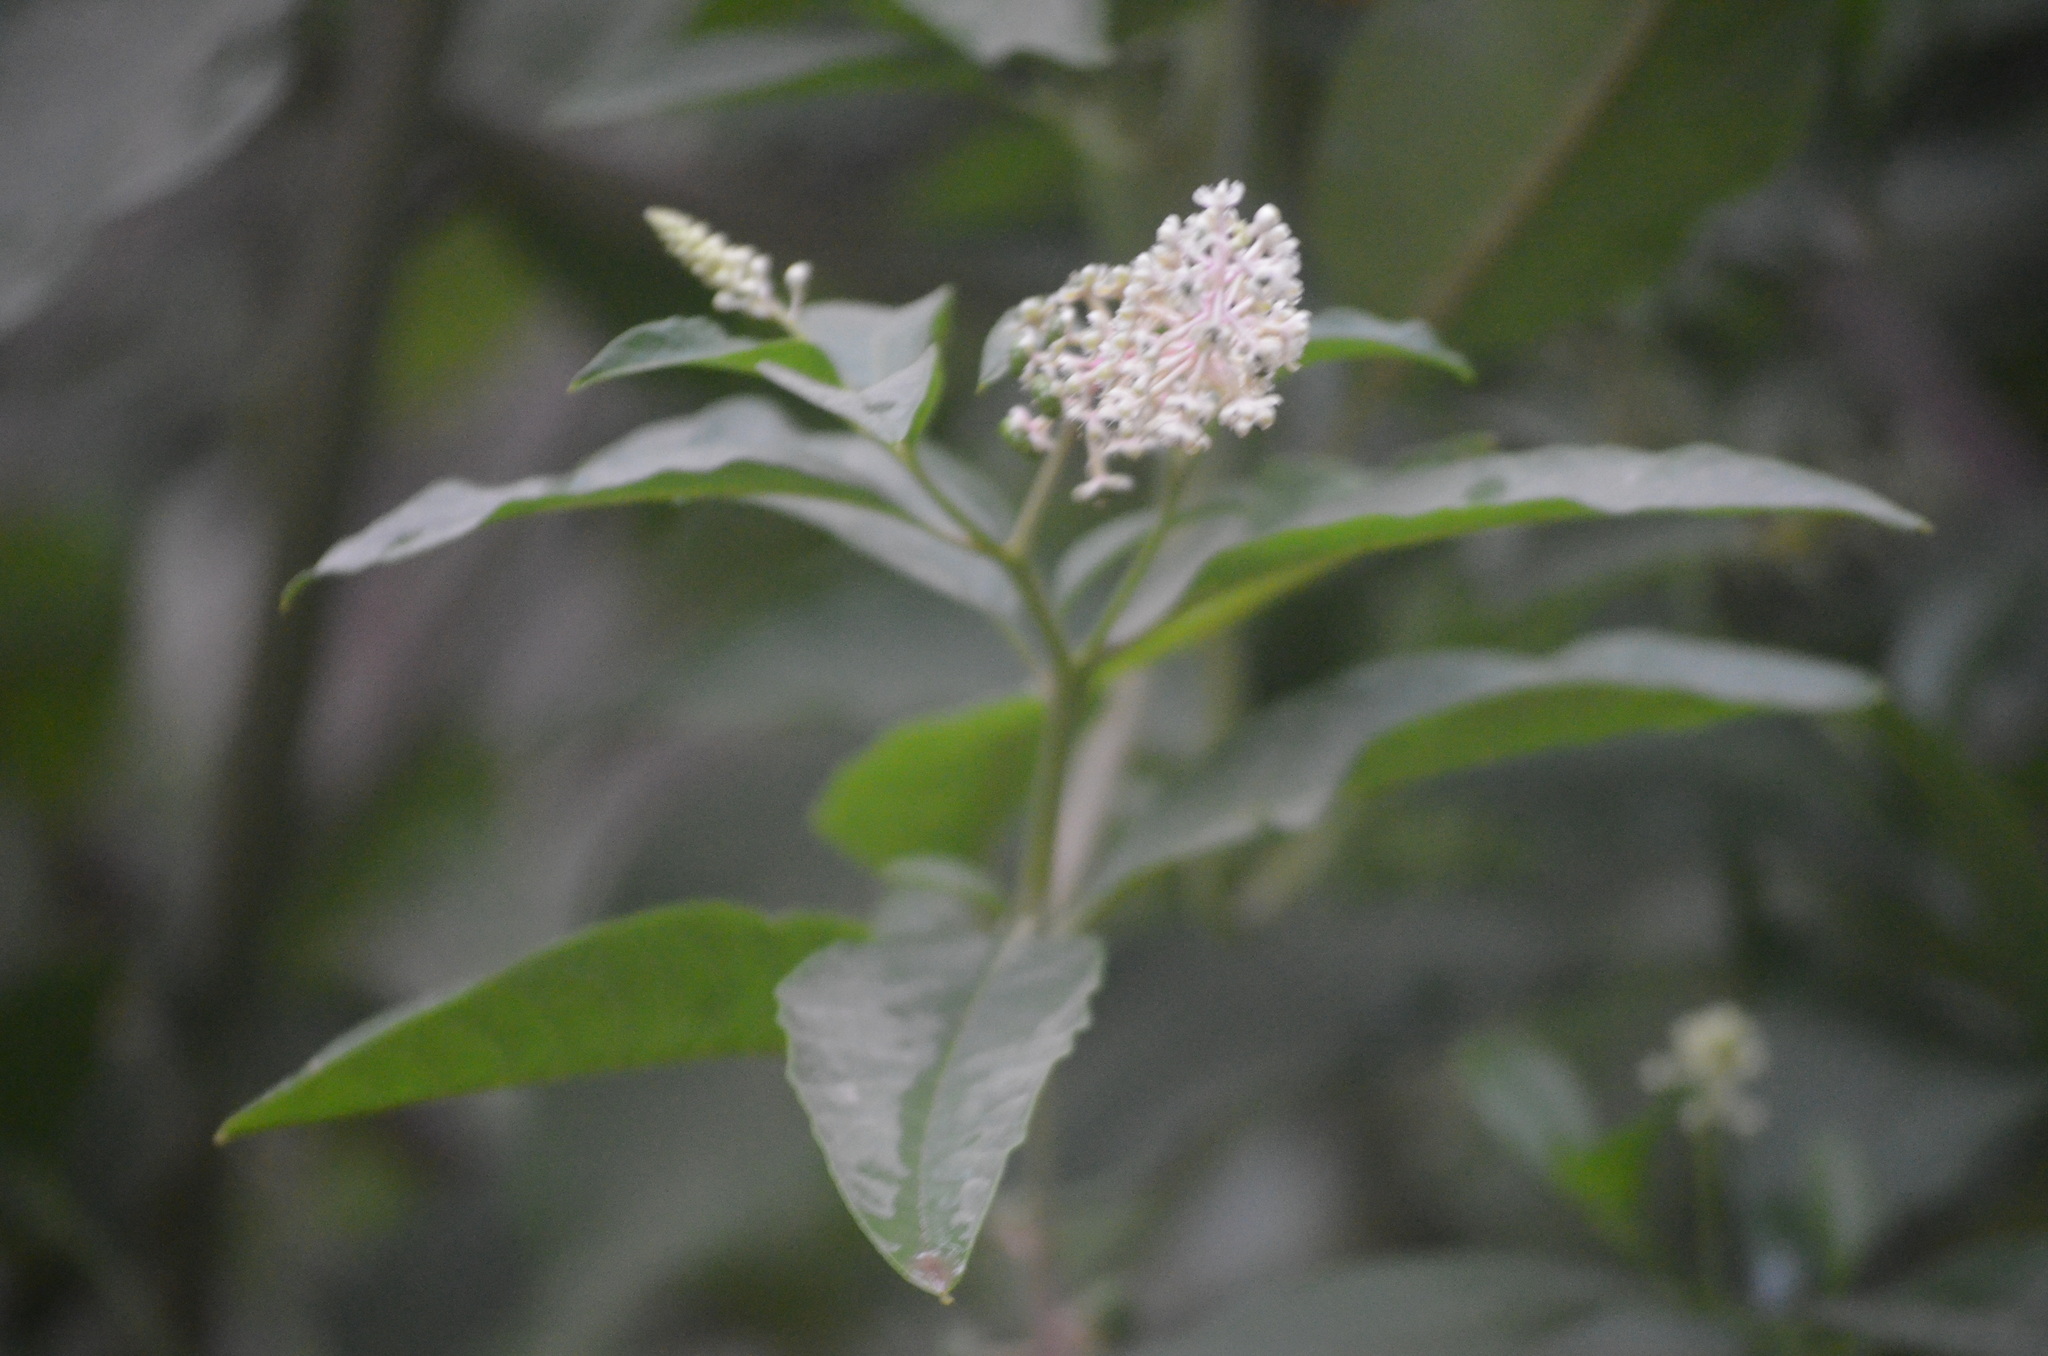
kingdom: Plantae
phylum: Tracheophyta
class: Magnoliopsida
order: Caryophyllales
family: Phytolaccaceae
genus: Phytolacca
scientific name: Phytolacca americana
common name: American pokeweed
